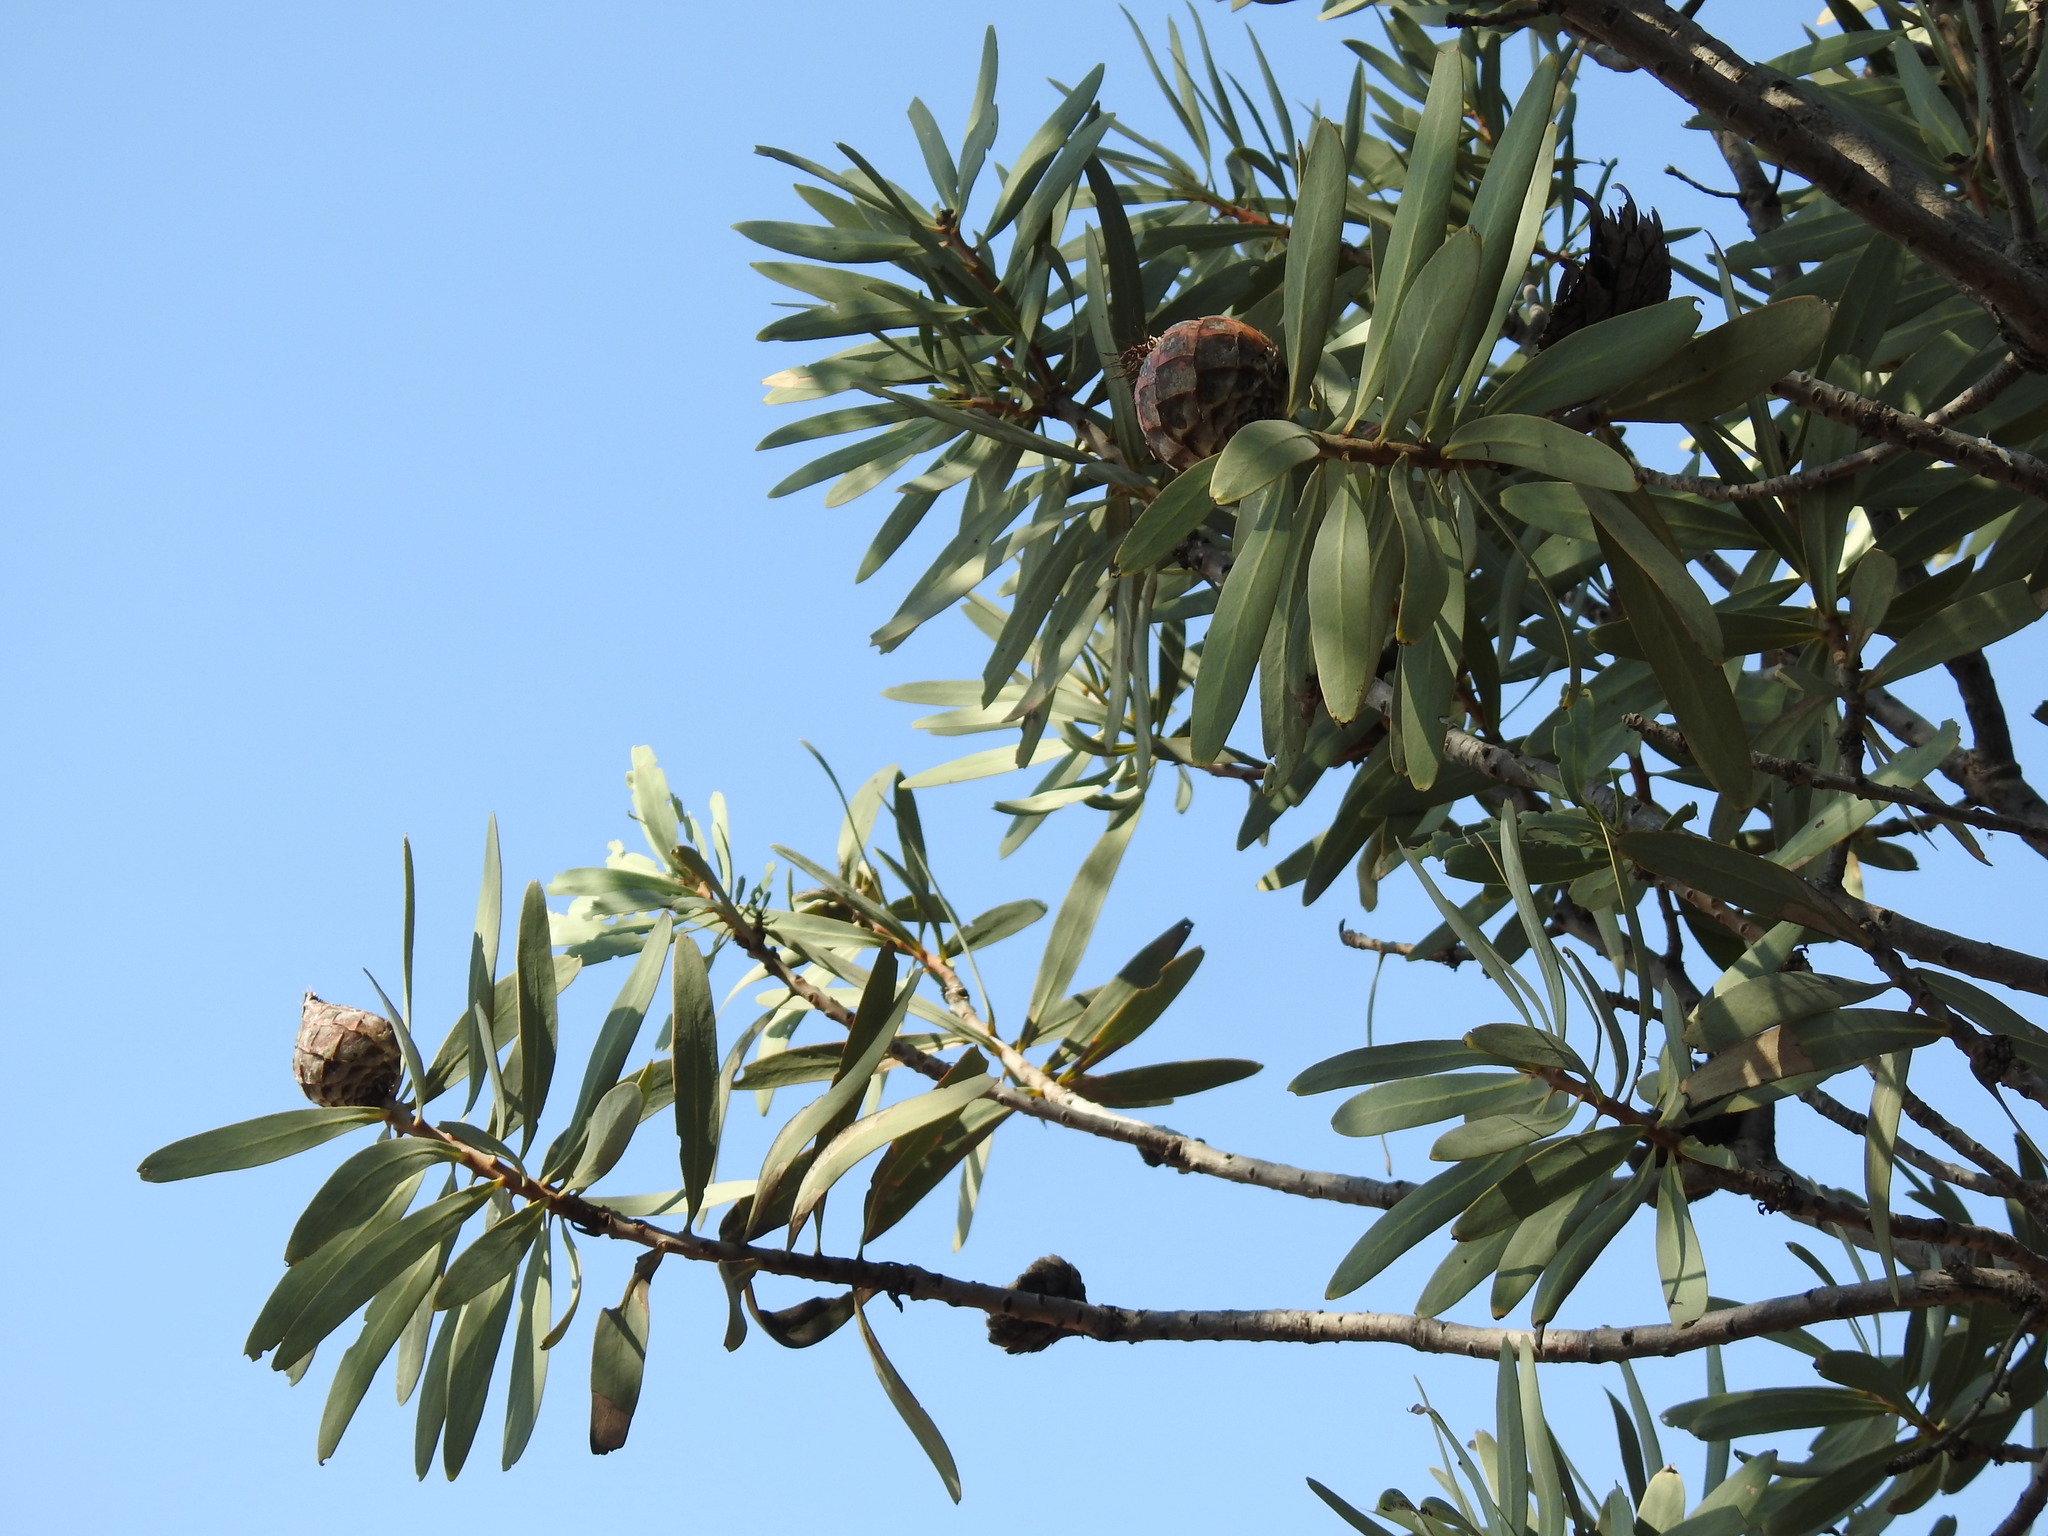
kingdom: Plantae
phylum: Tracheophyta
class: Magnoliopsida
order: Proteales
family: Proteaceae
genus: Protea
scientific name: Protea caffra
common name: Common sugarbush
